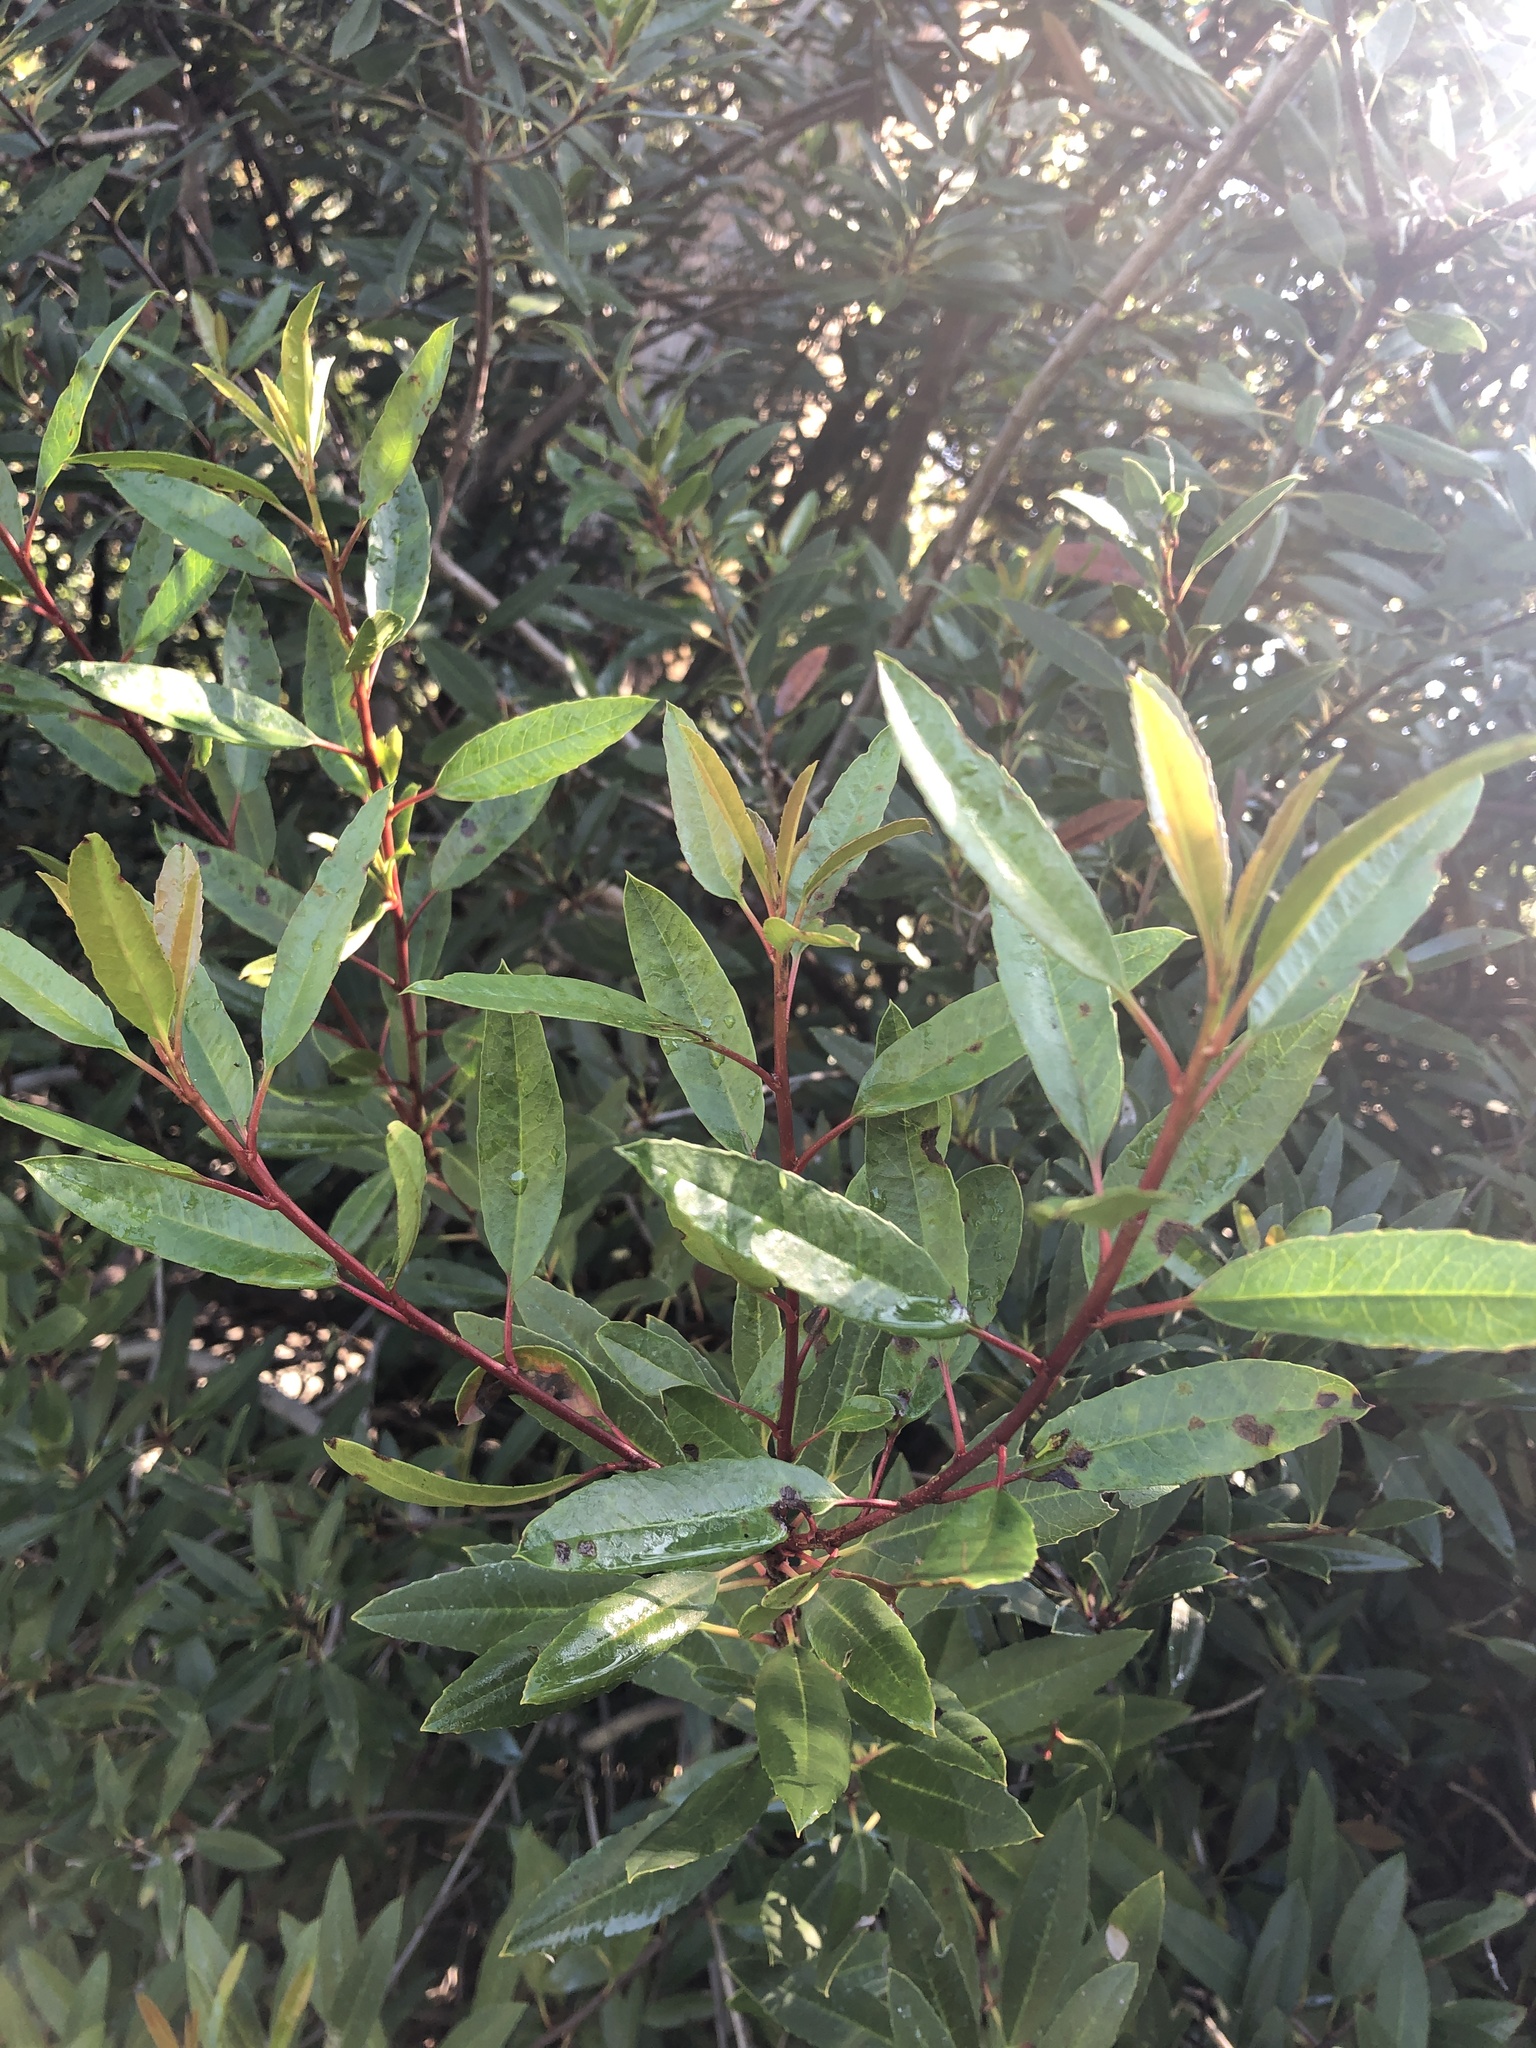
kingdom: Plantae
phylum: Tracheophyta
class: Magnoliopsida
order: Rosales
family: Rosaceae
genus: Heteromeles
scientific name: Heteromeles arbutifolia
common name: California-holly
